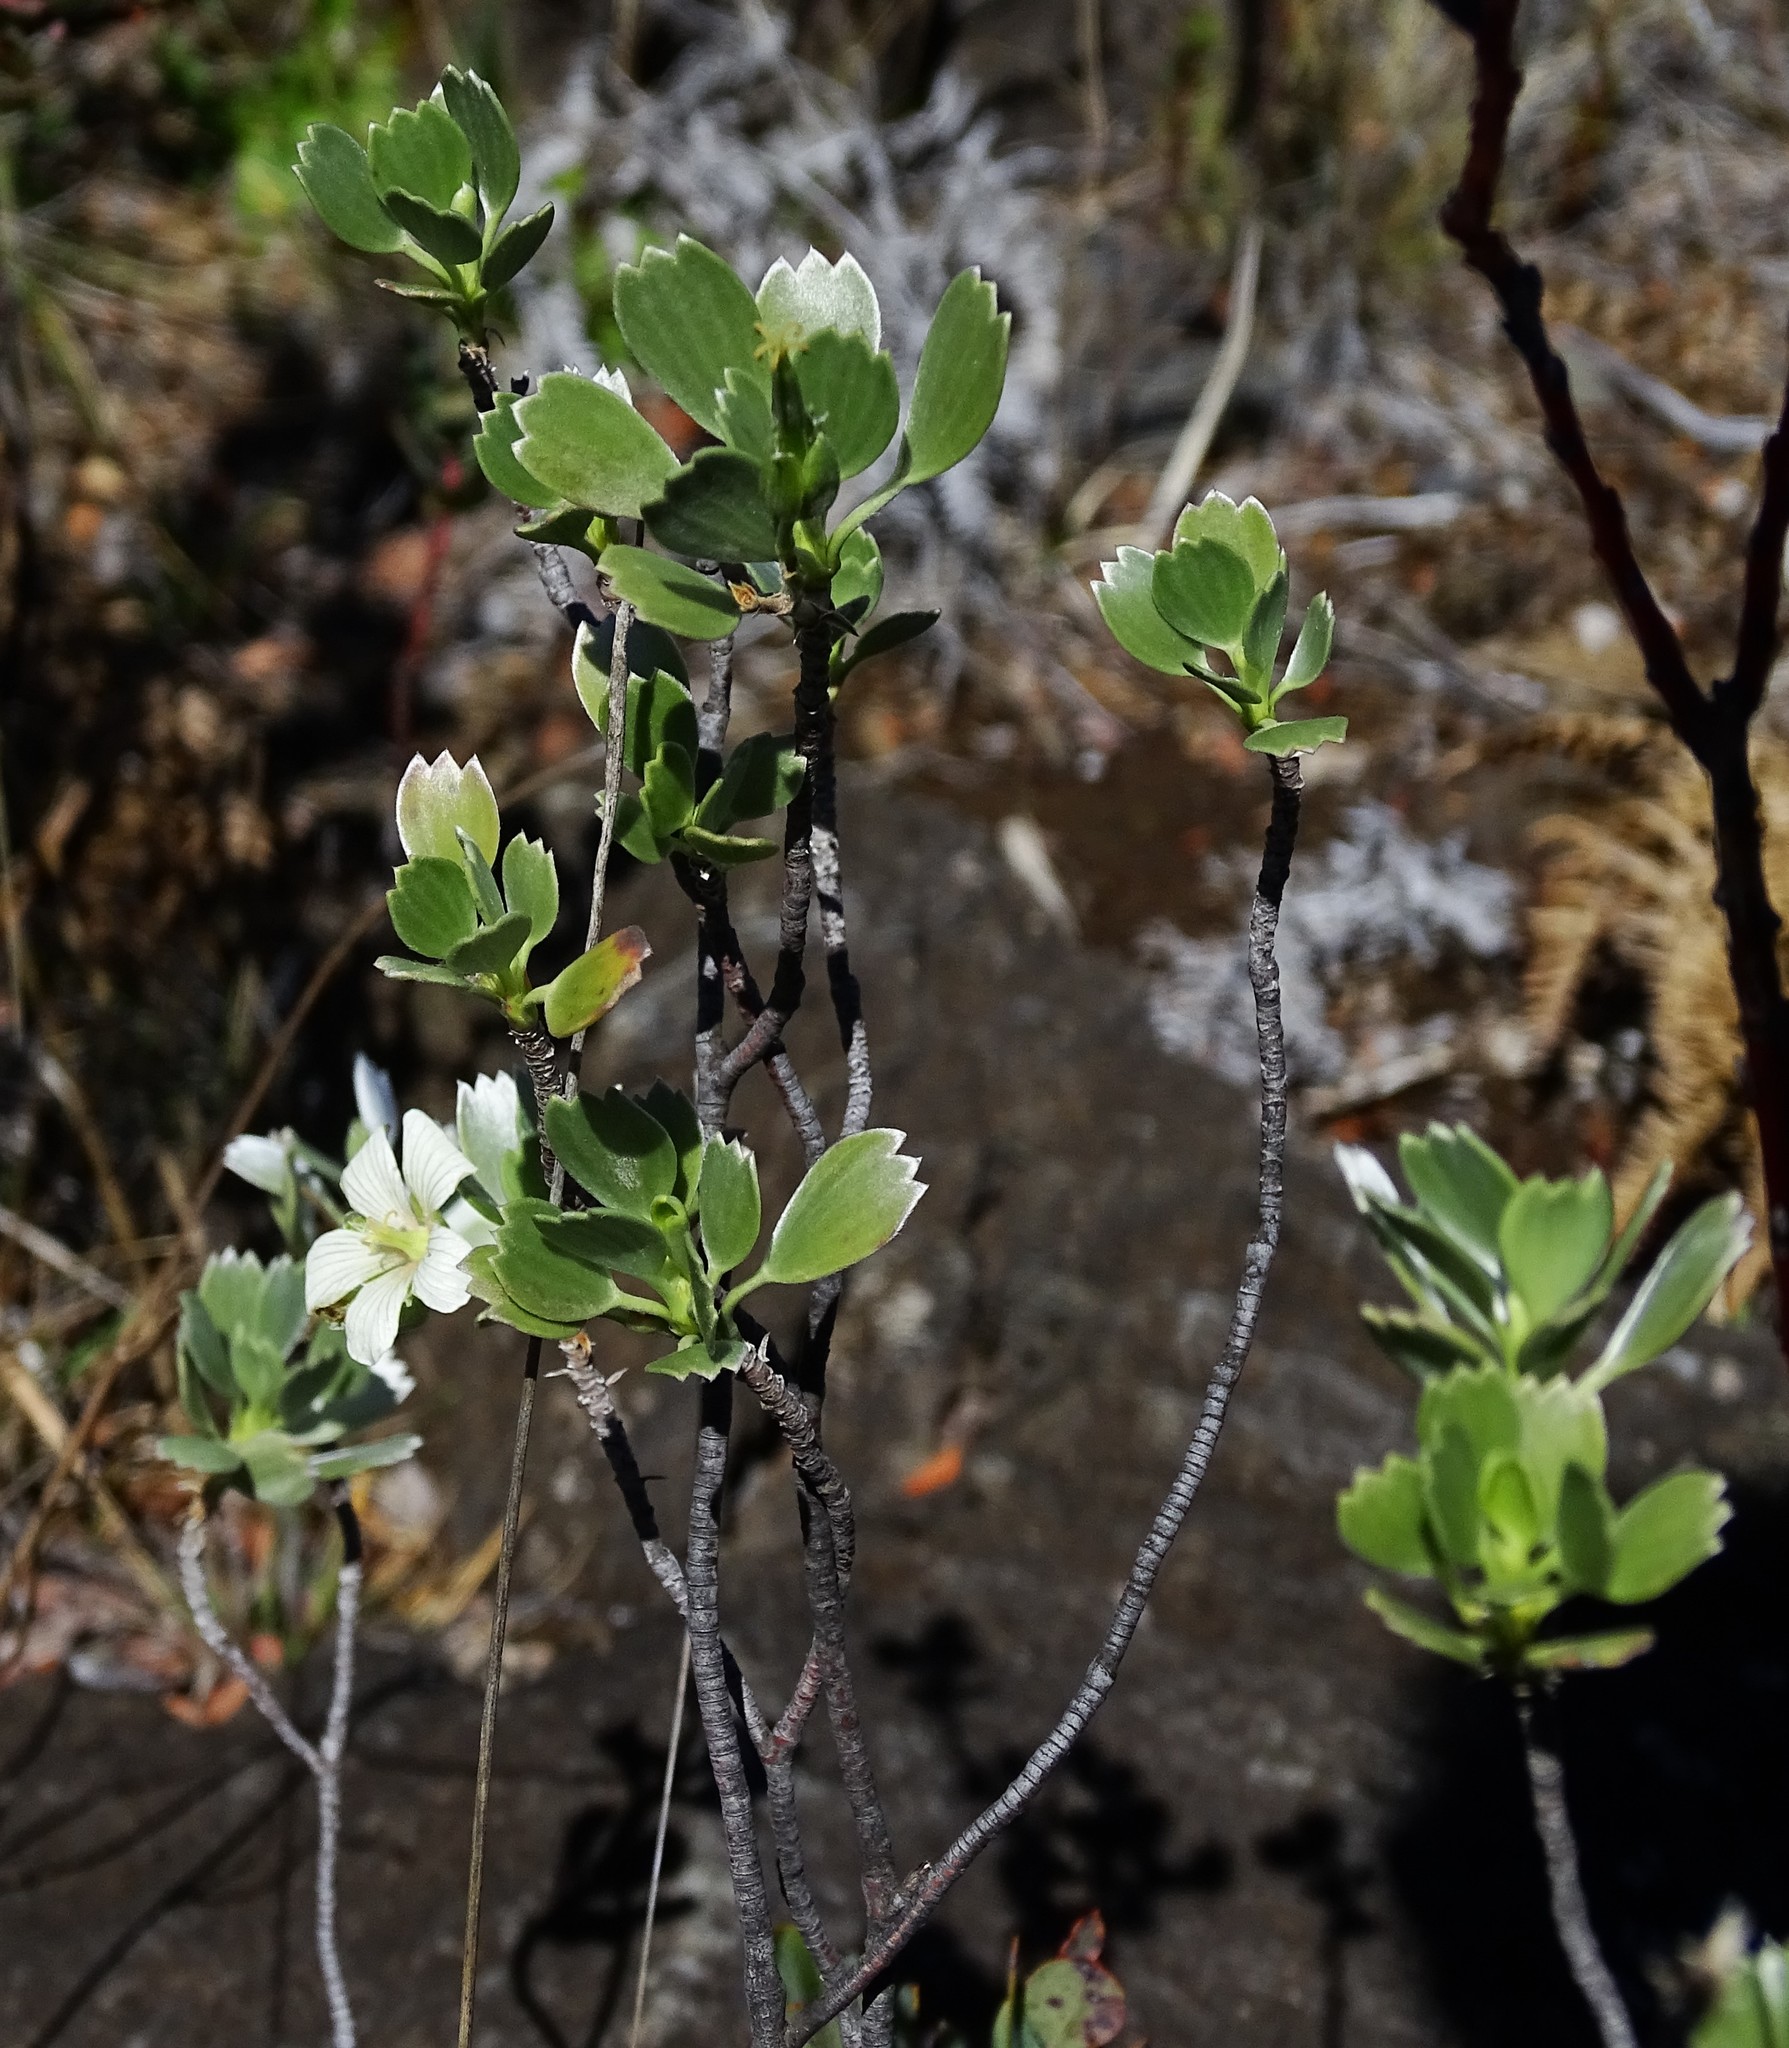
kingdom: Plantae
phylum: Tracheophyta
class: Magnoliopsida
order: Geraniales
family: Geraniaceae
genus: Geranium
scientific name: Geranium cuneatum
